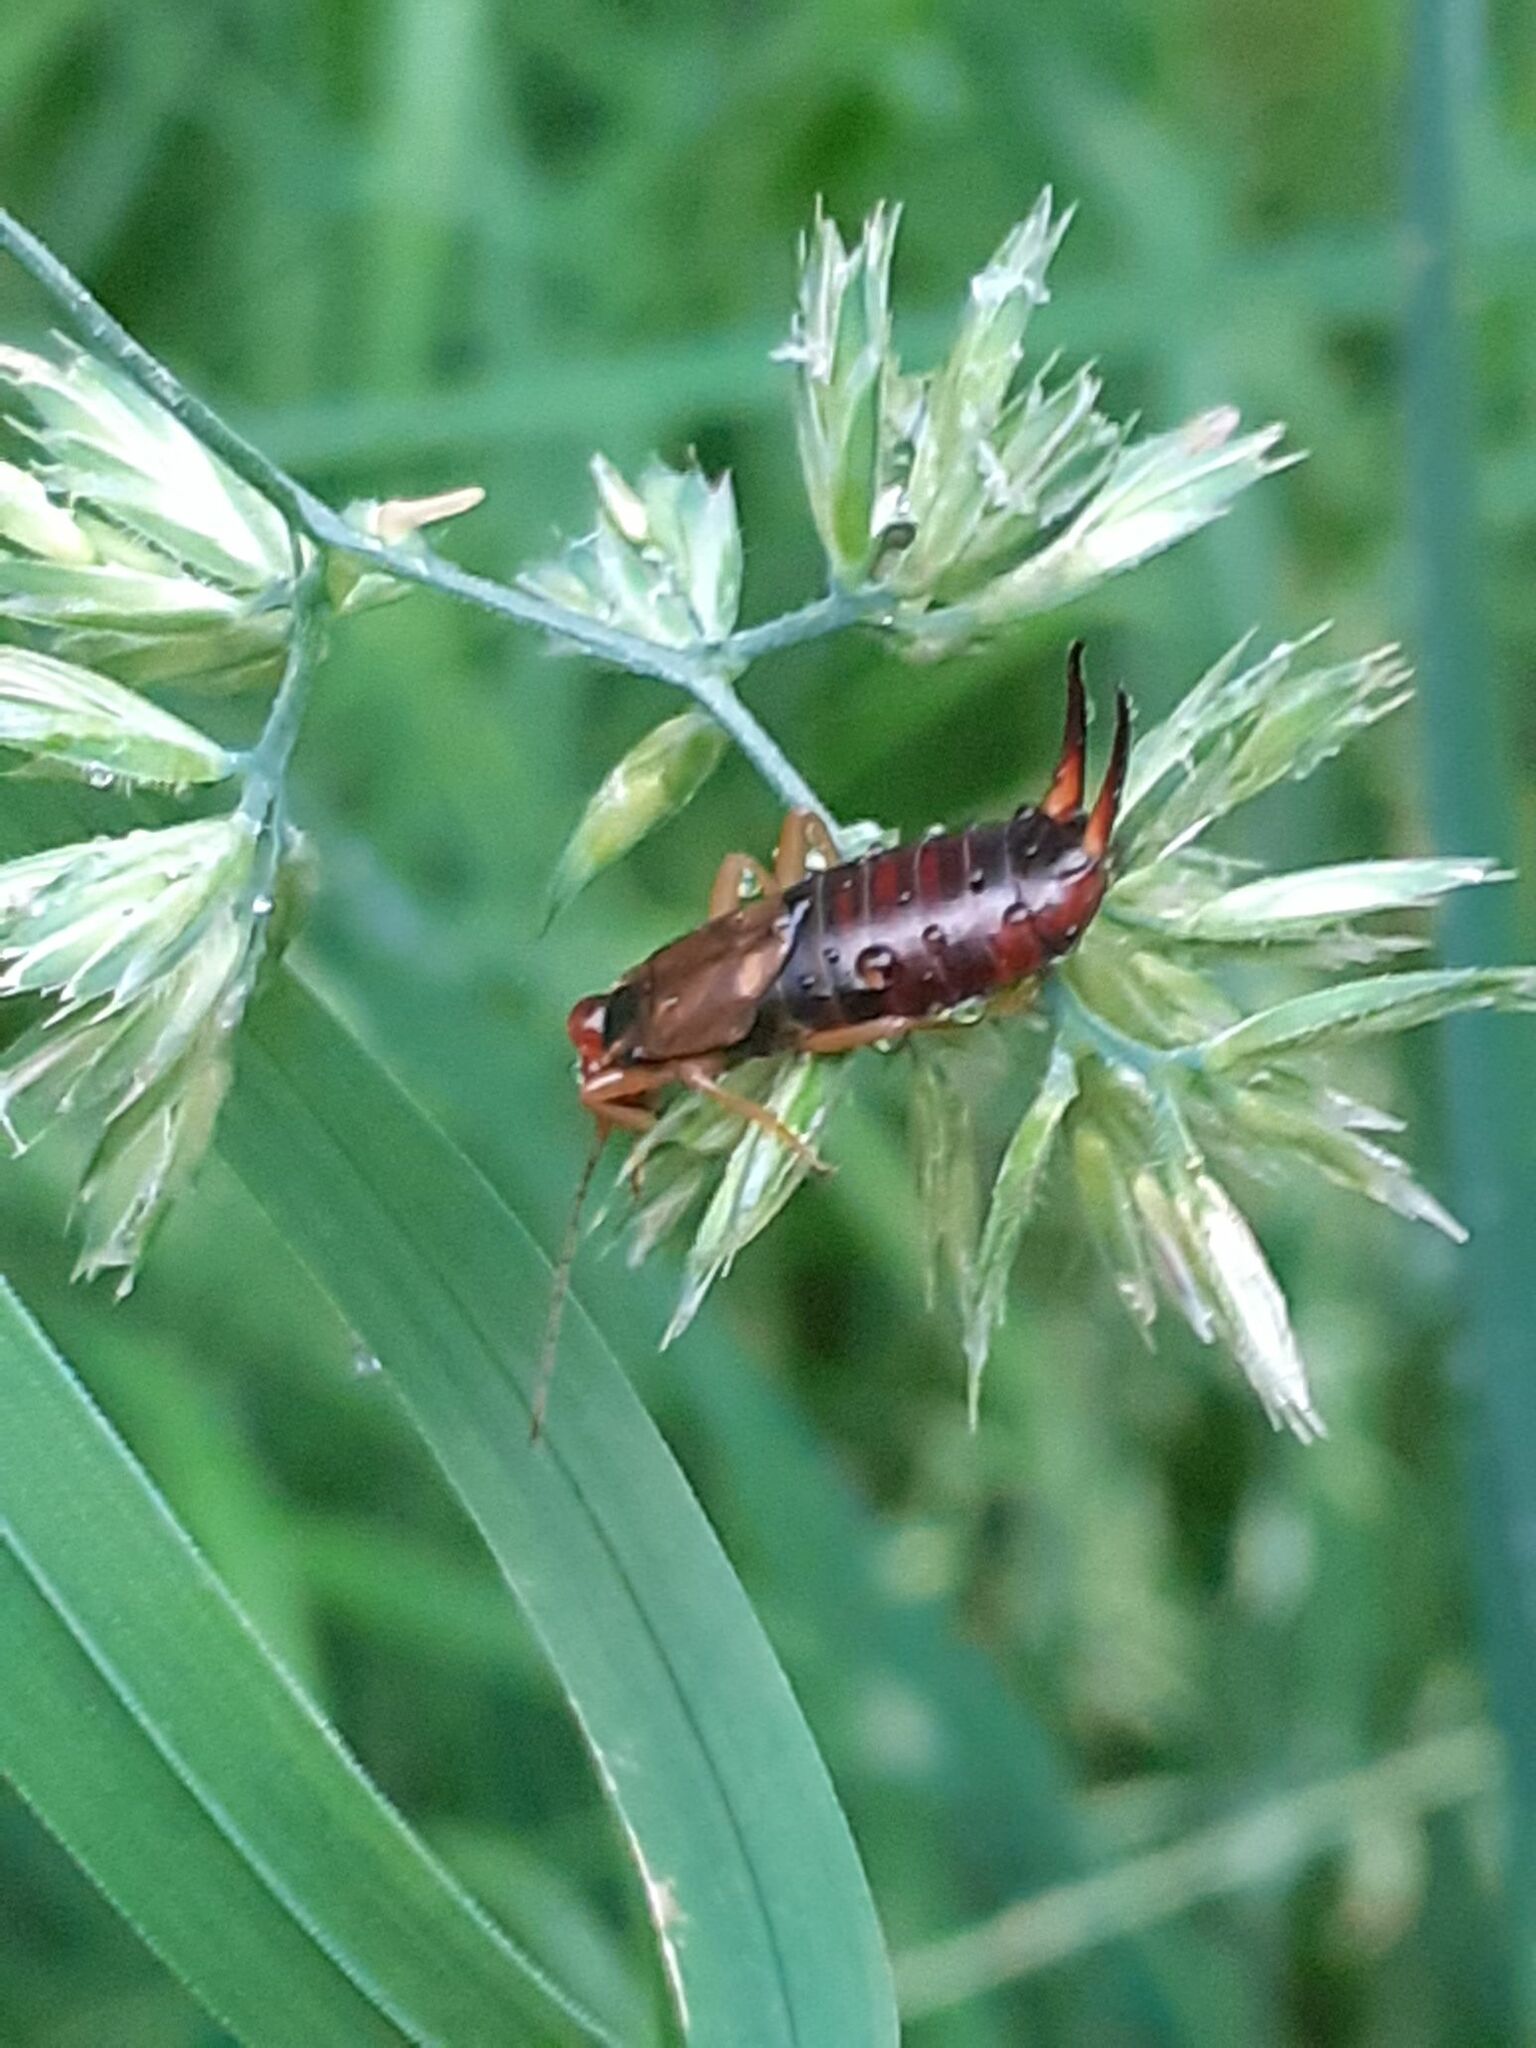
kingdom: Animalia
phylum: Arthropoda
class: Insecta
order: Dermaptera
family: Forficulidae
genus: Forficula
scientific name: Forficula
